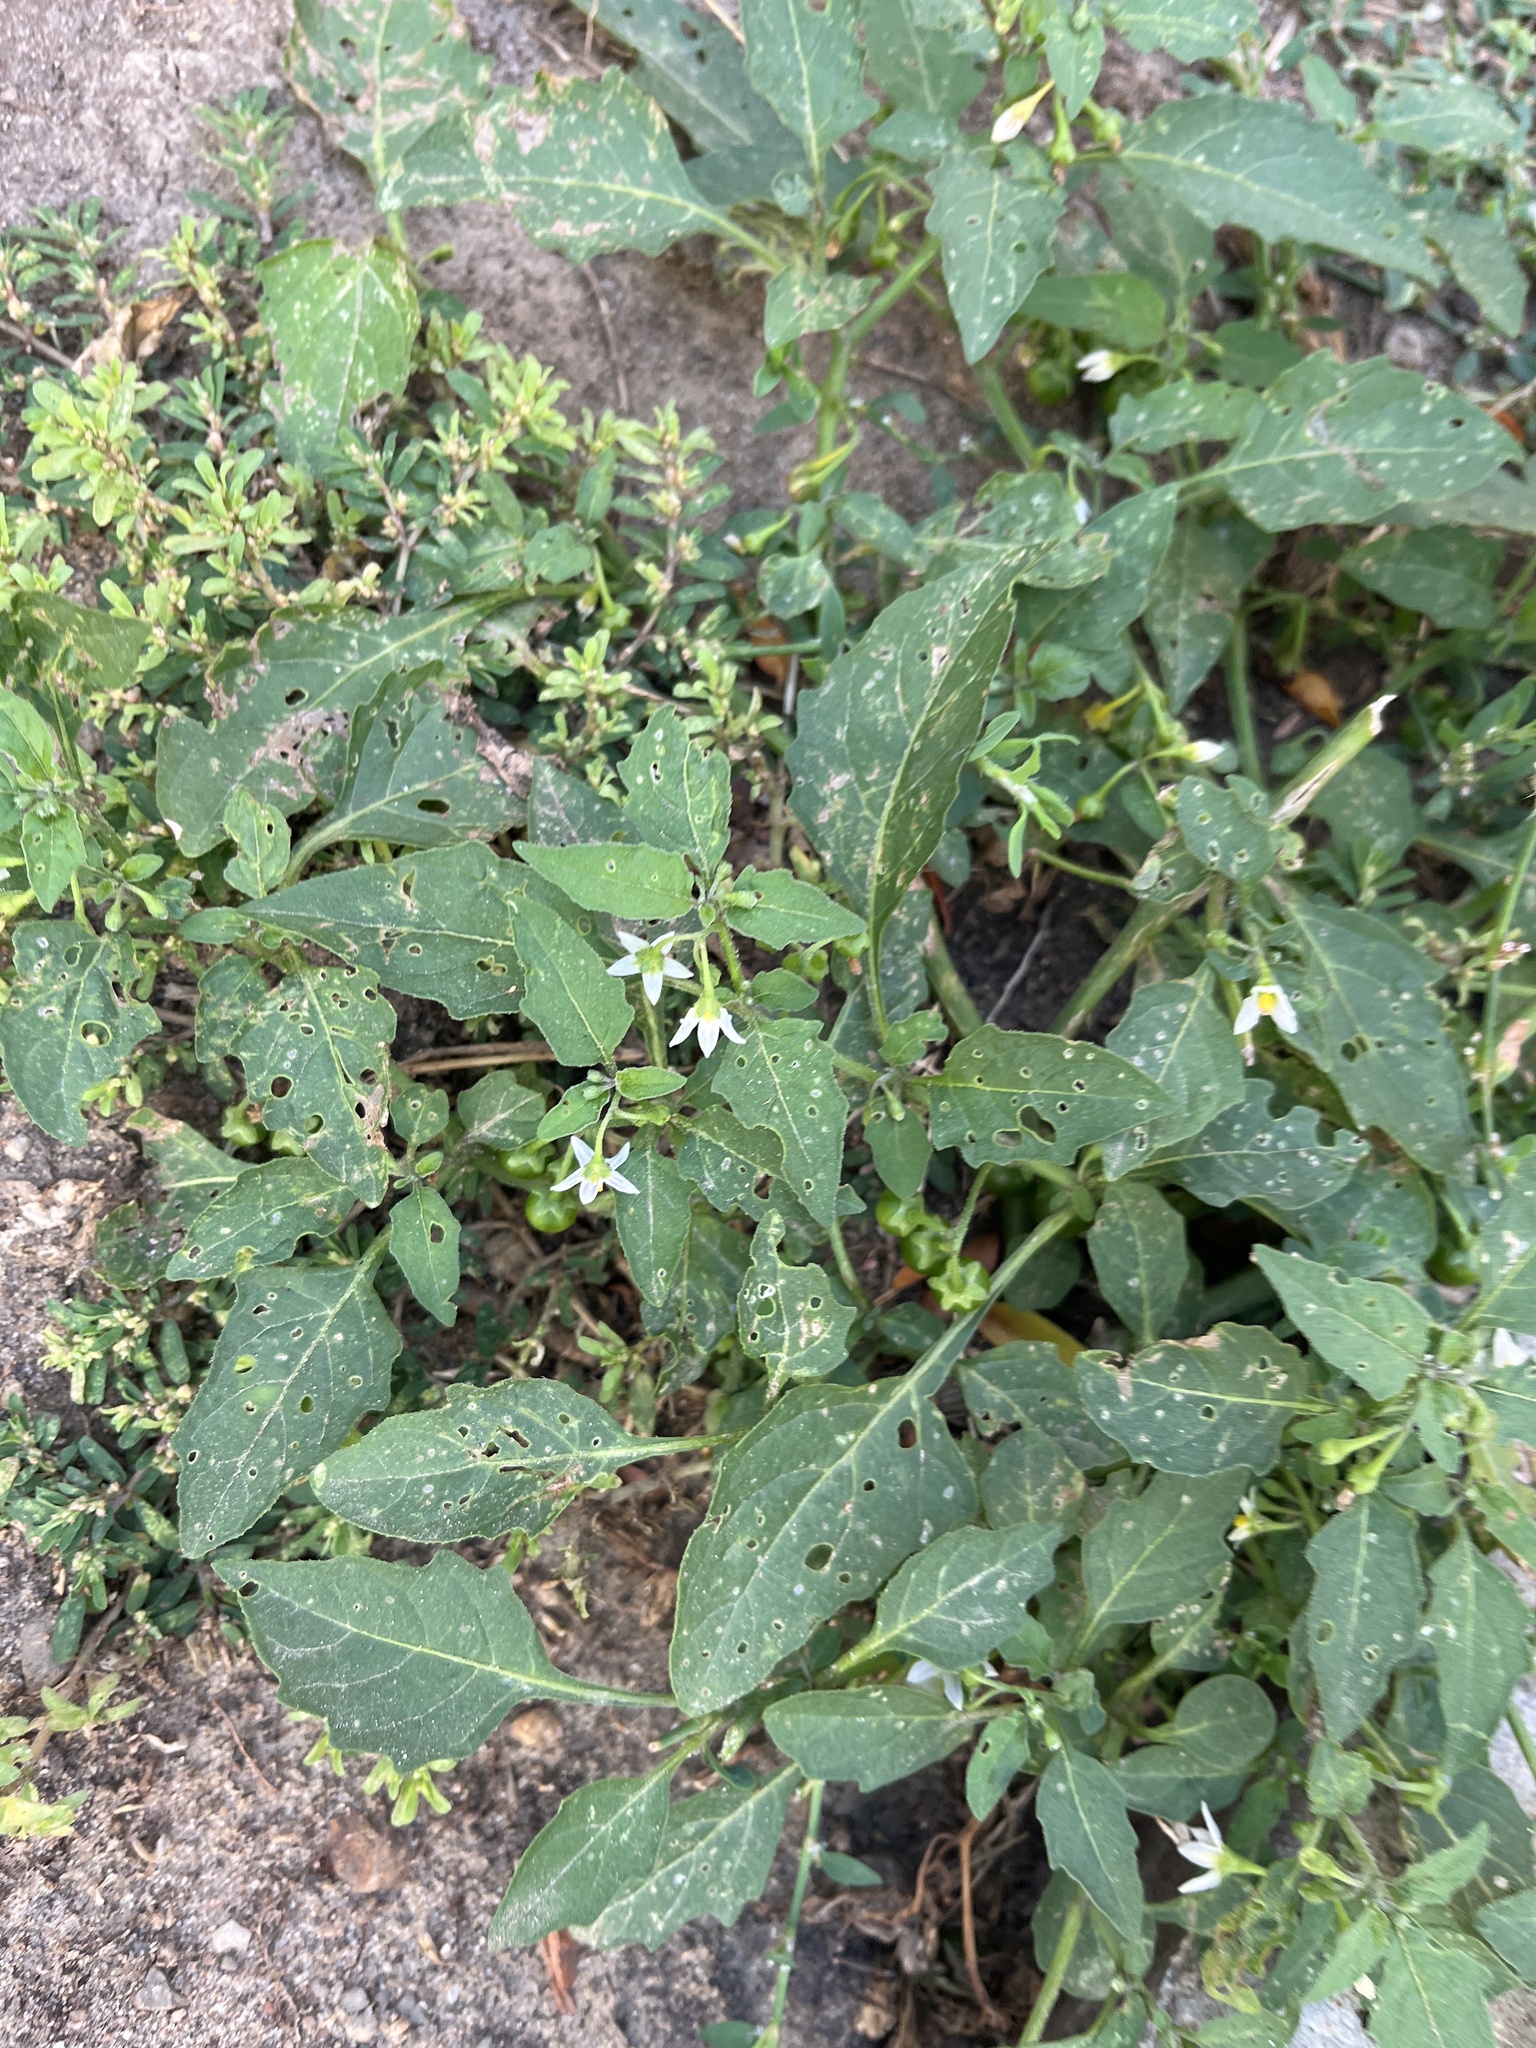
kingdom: Plantae
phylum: Tracheophyta
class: Magnoliopsida
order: Solanales
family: Solanaceae
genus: Solanum
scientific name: Solanum emulans
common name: Eastern black nightshade
